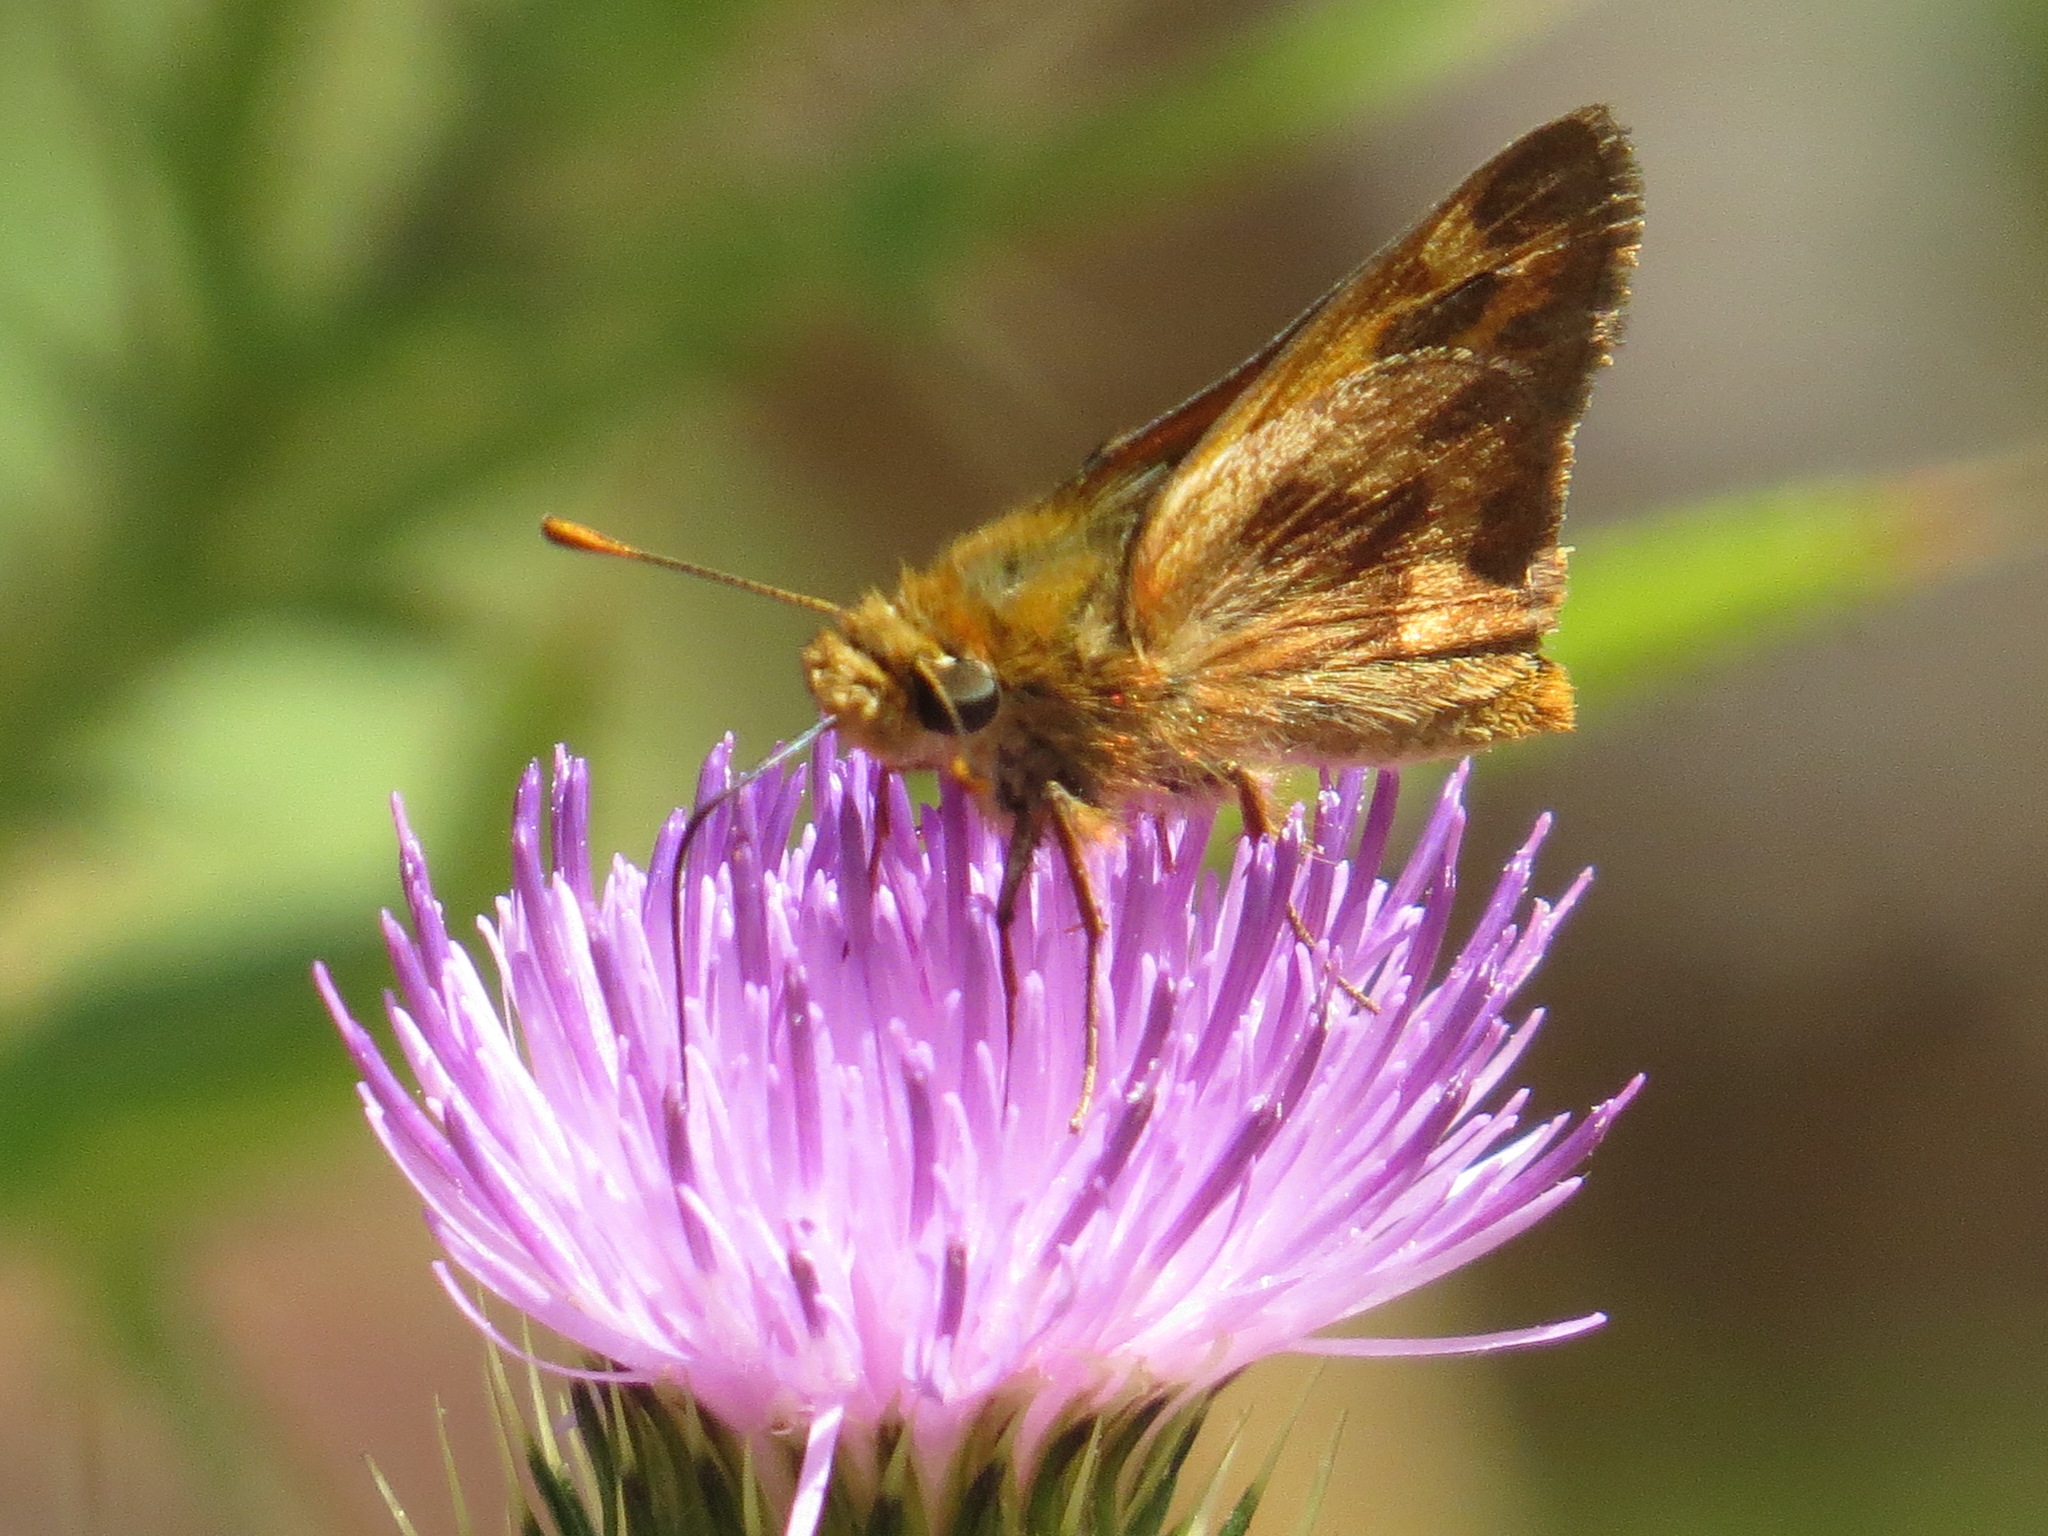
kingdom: Animalia
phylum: Arthropoda
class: Insecta
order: Lepidoptera
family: Hesperiidae
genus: Ochlodes
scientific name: Ochlodes sylvanoides
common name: Woodland skipper
